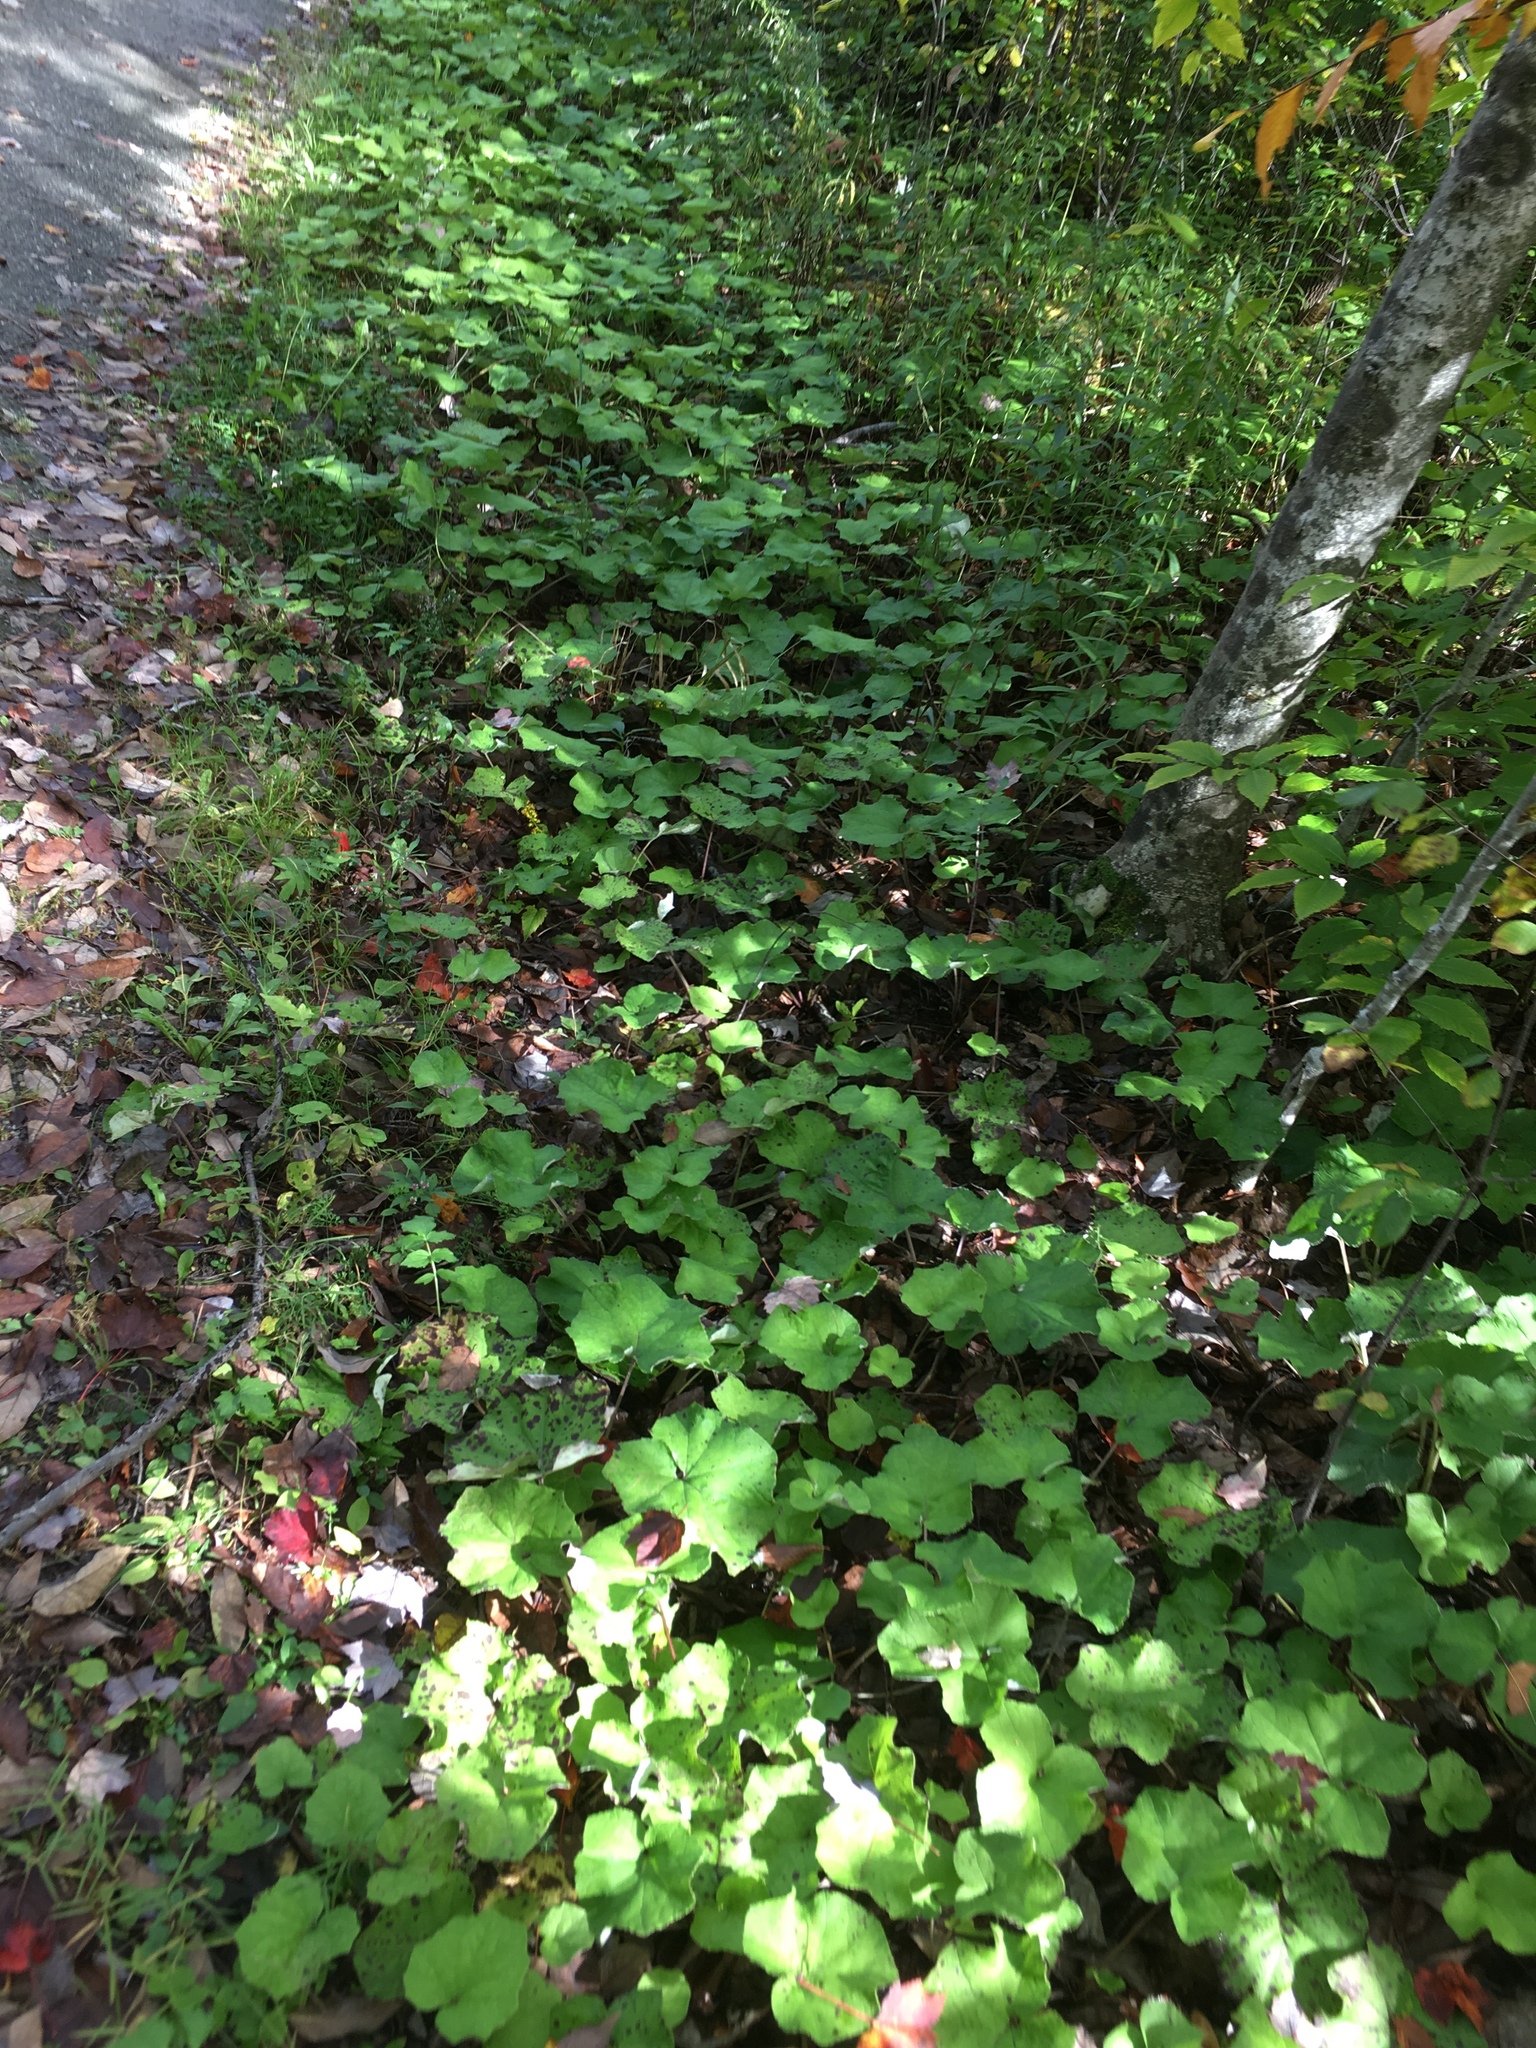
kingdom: Plantae
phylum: Tracheophyta
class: Magnoliopsida
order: Asterales
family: Asteraceae
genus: Tussilago
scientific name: Tussilago farfara
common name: Coltsfoot
